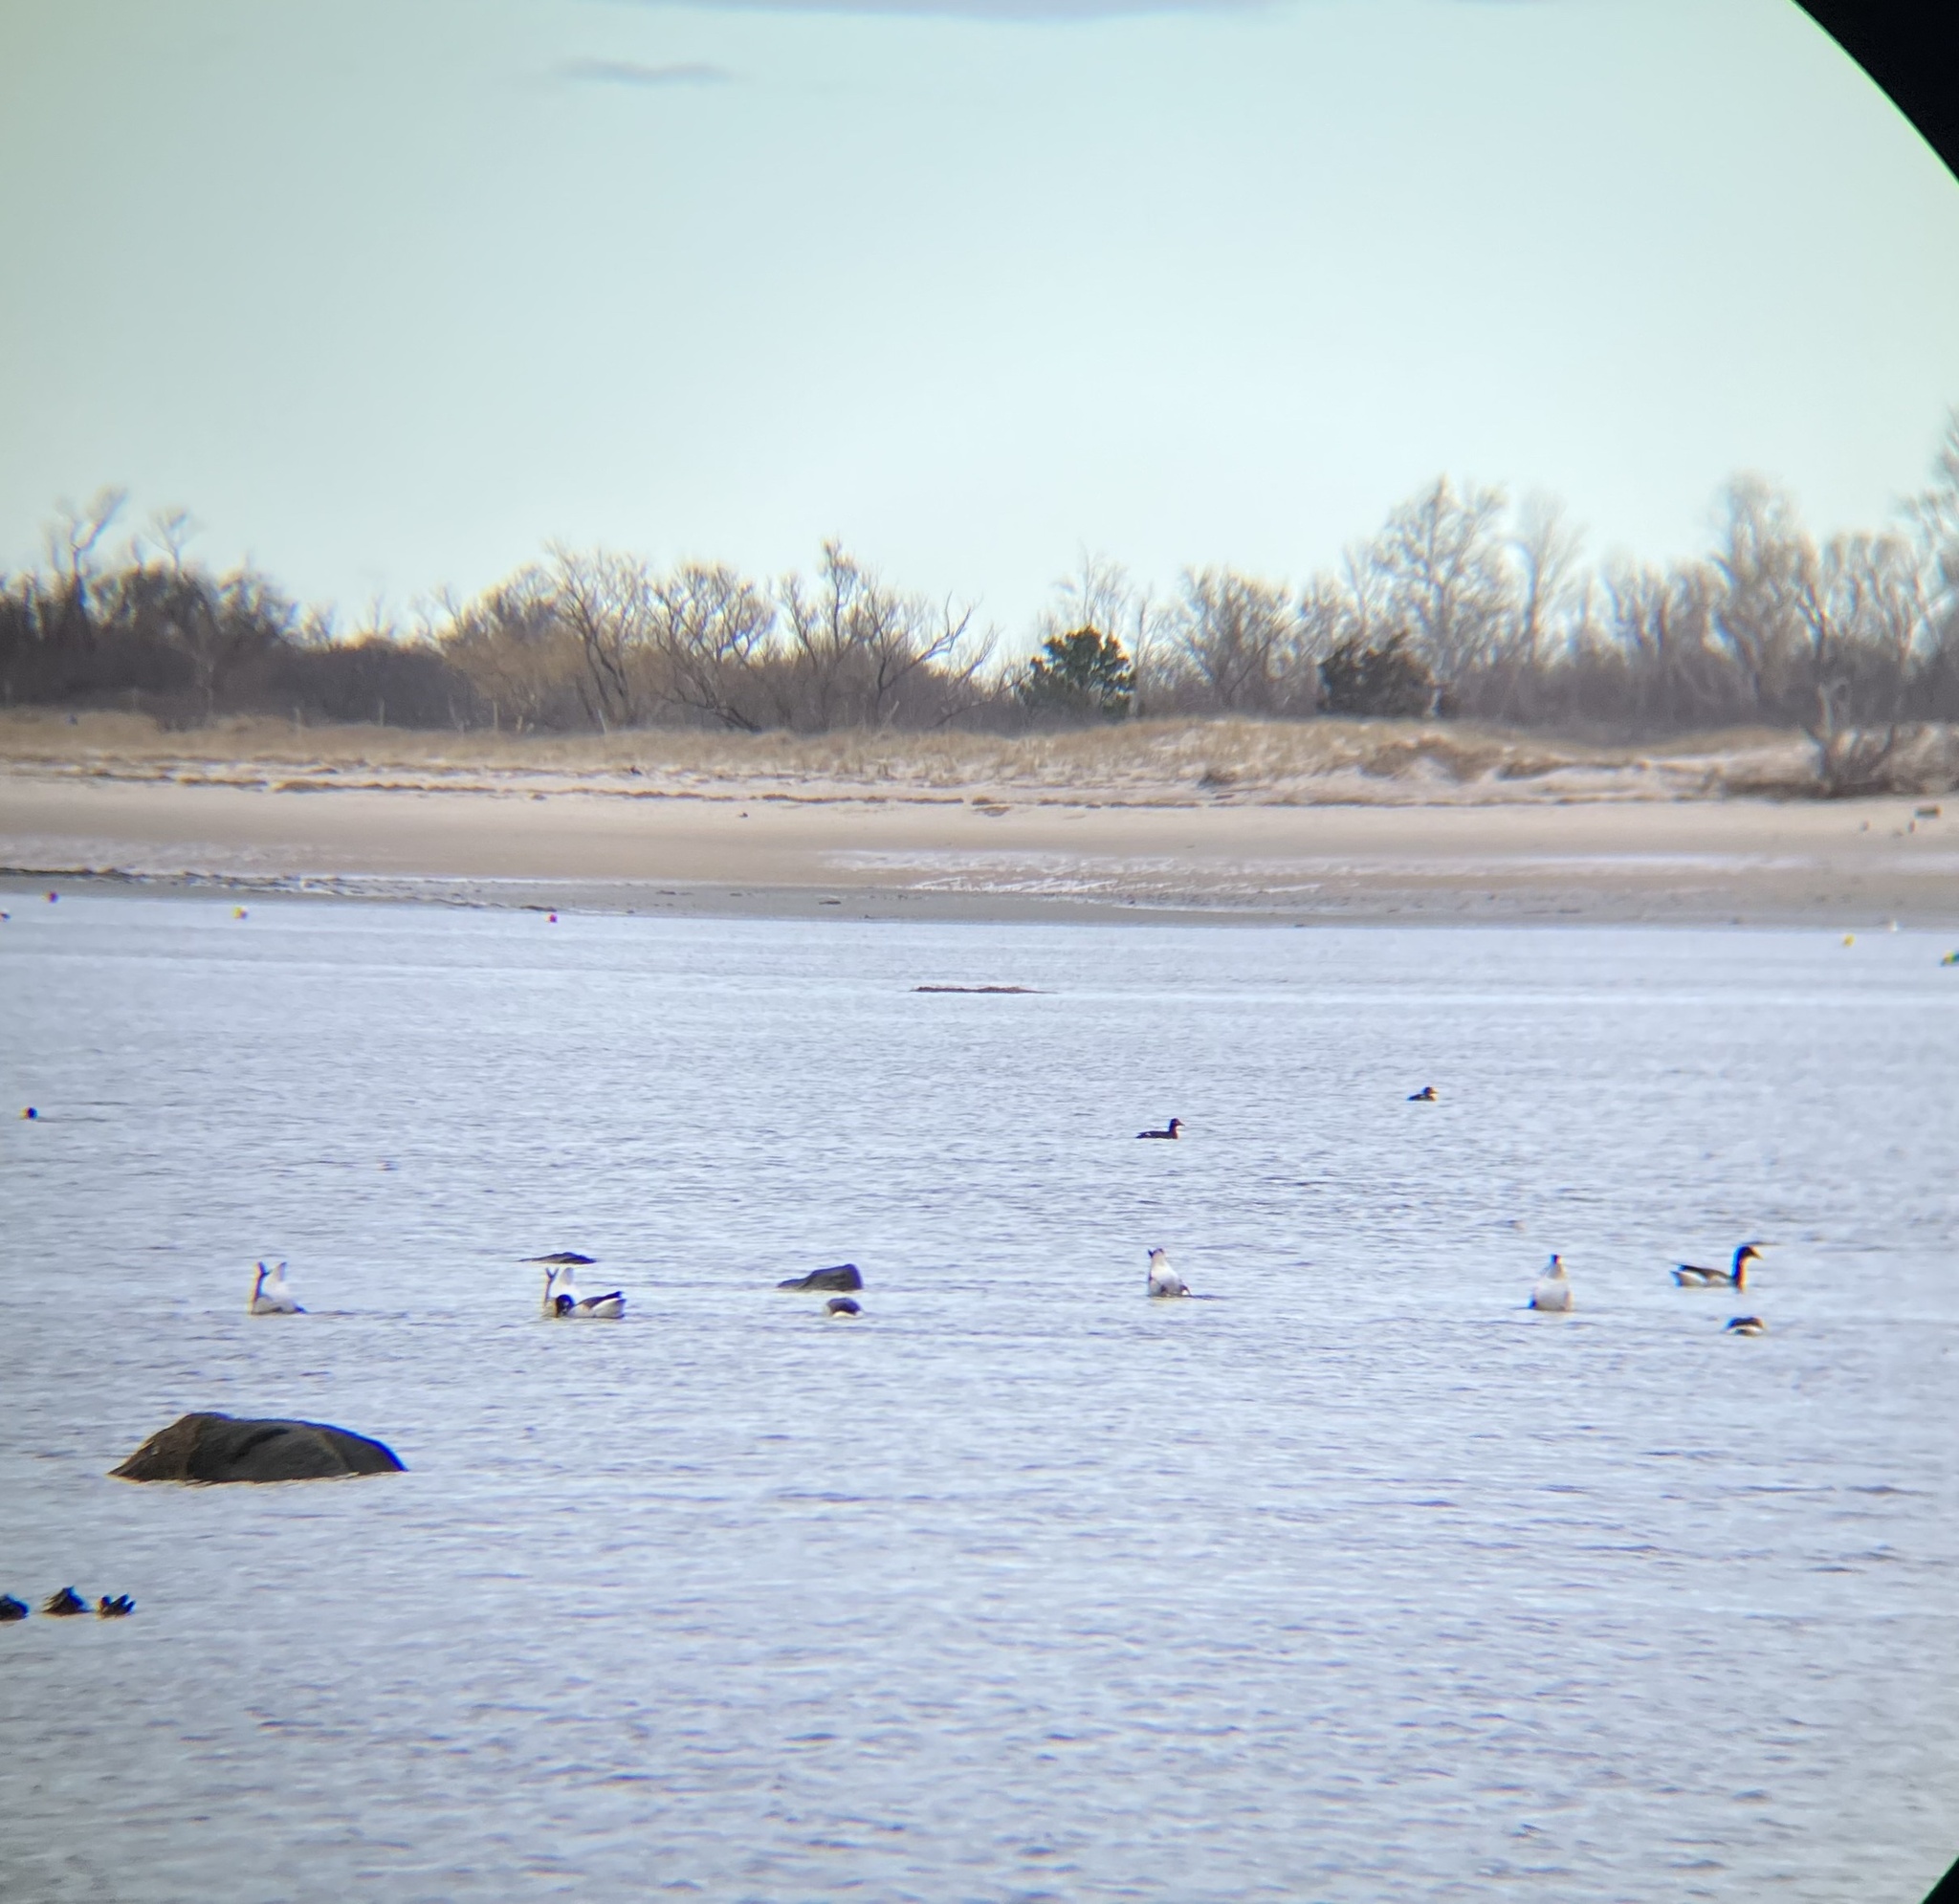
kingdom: Animalia
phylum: Chordata
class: Aves
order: Anseriformes
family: Anatidae
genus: Branta
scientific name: Branta bernicla
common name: Brant goose
